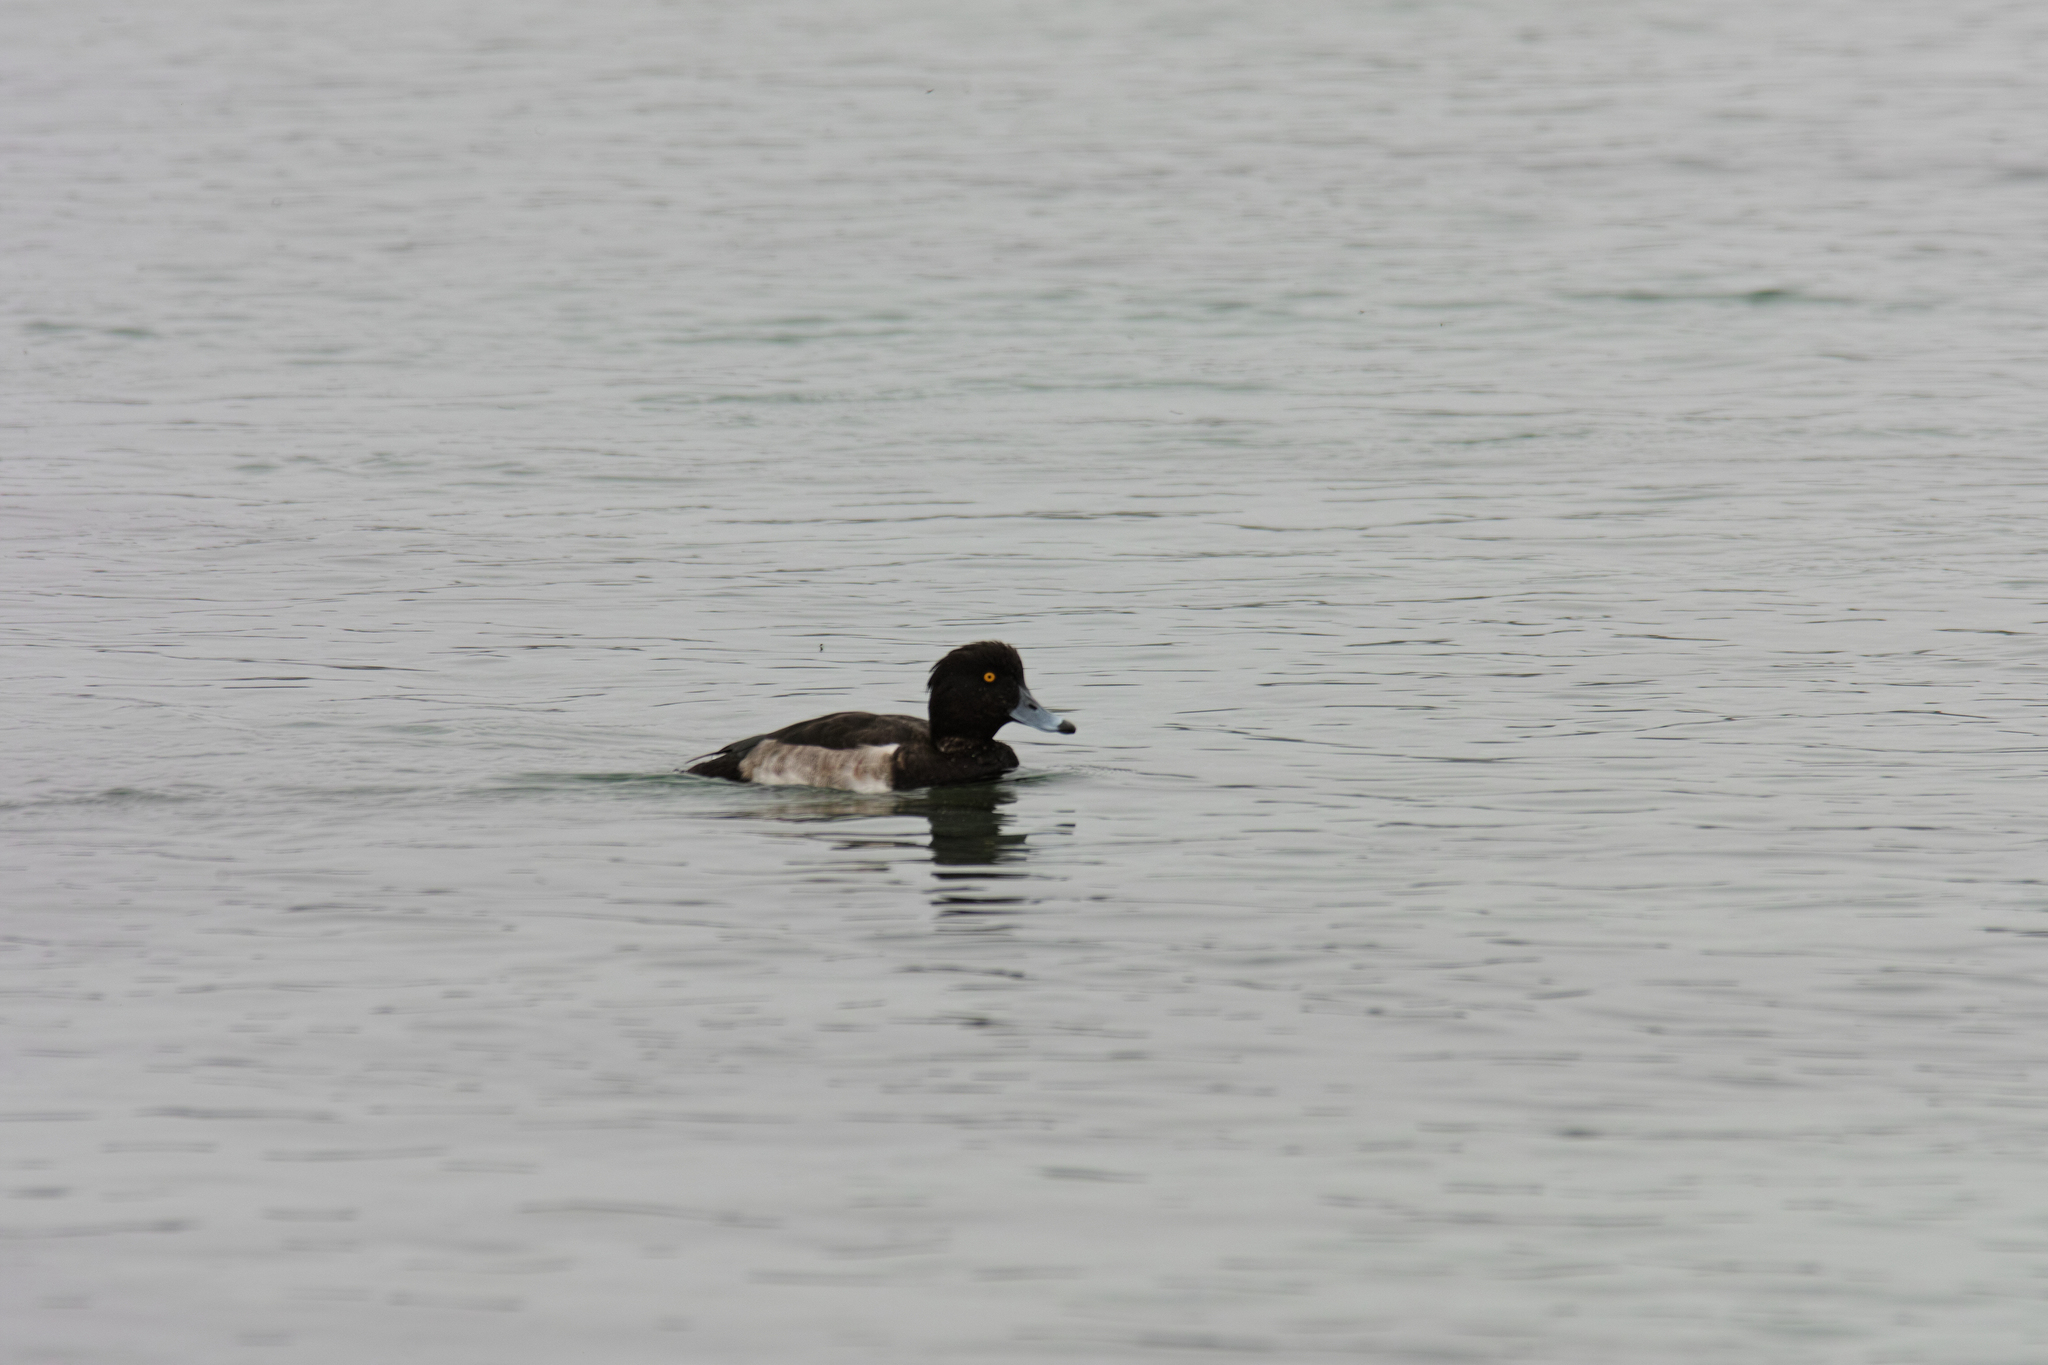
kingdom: Animalia
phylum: Chordata
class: Aves
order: Anseriformes
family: Anatidae
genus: Aythya
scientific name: Aythya fuligula
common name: Tufted duck
